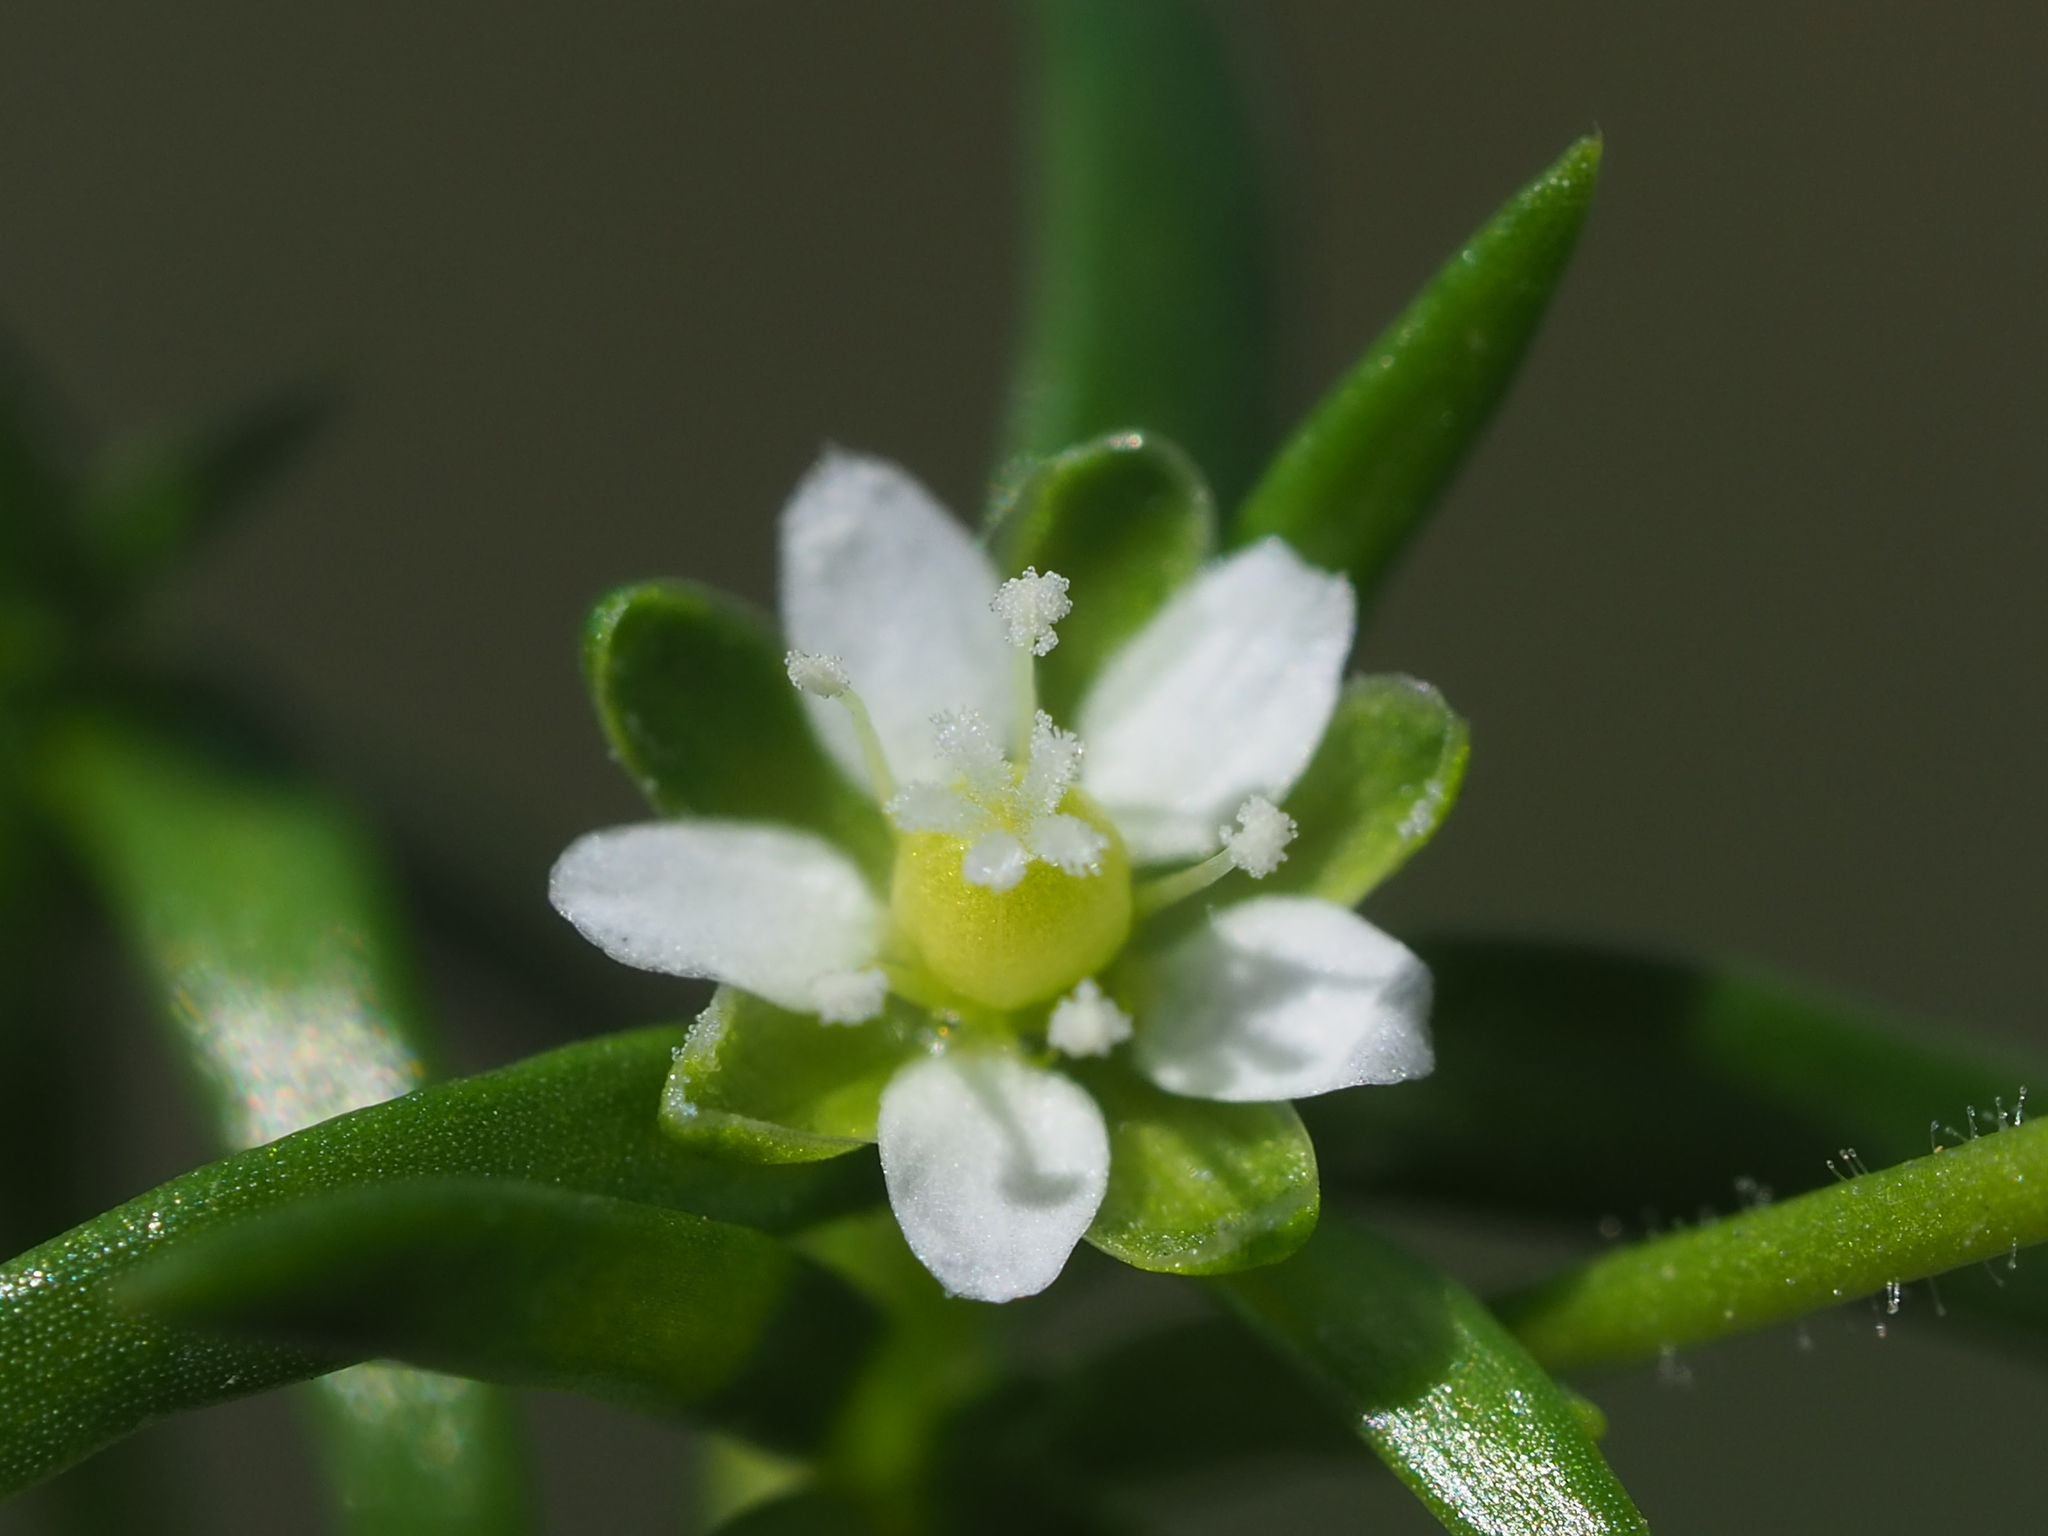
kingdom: Plantae
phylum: Tracheophyta
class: Magnoliopsida
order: Caryophyllales
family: Caryophyllaceae
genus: Sagina
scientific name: Sagina japonica
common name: Japanese pearlwort
